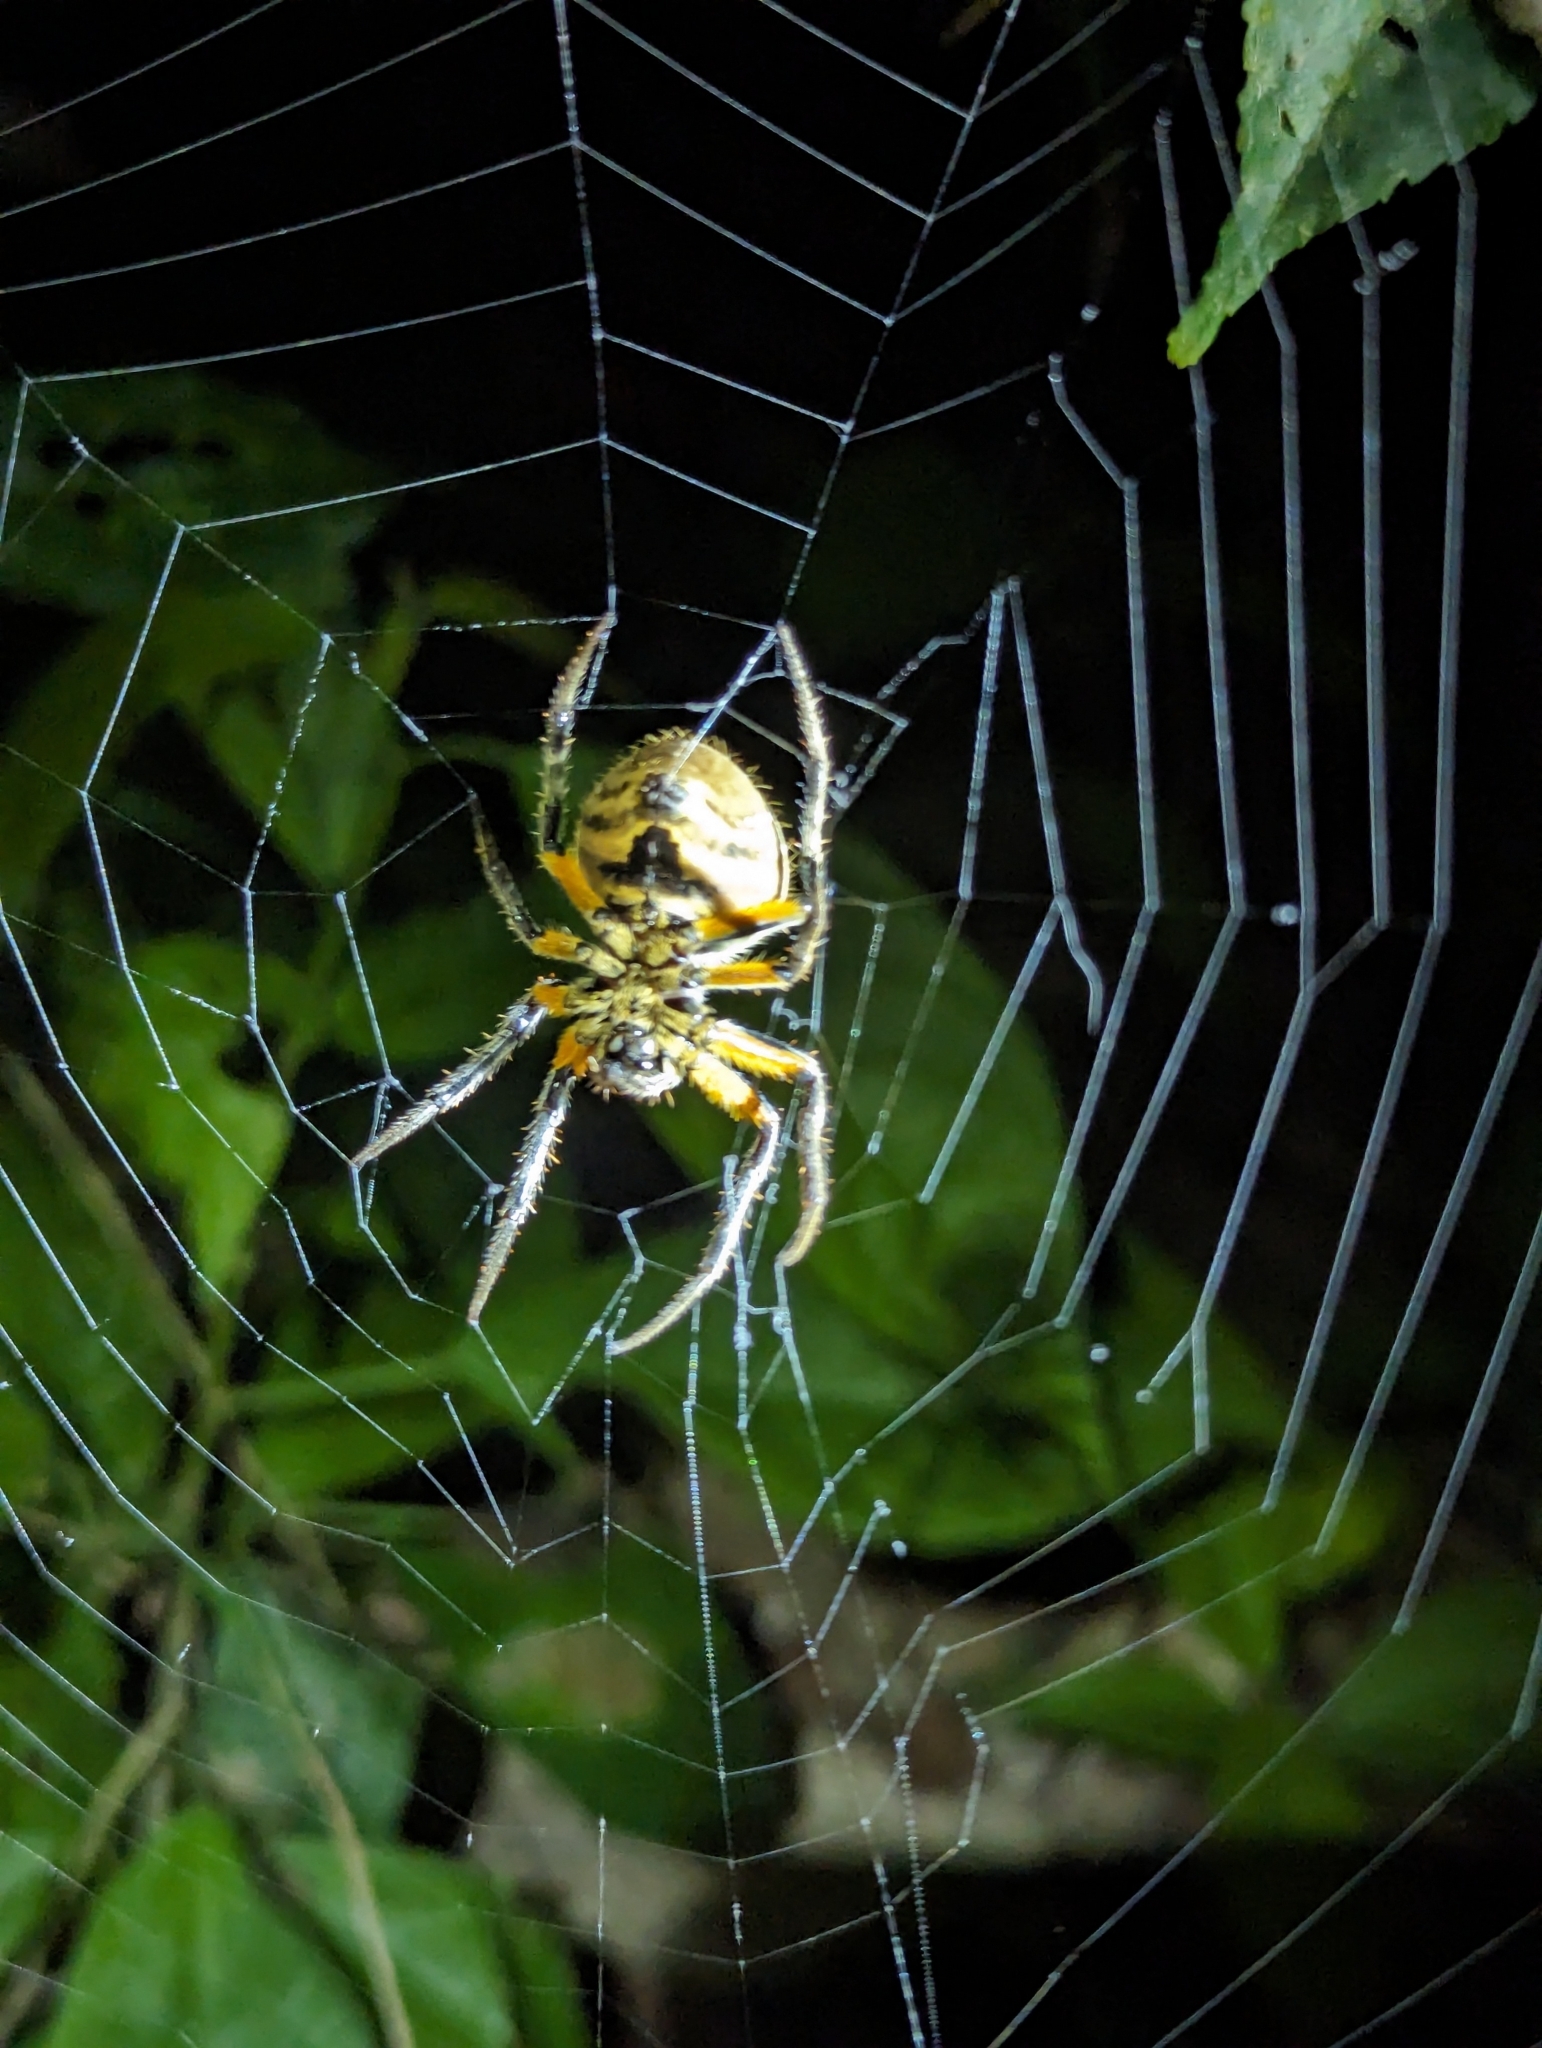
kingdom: Animalia
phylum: Arthropoda
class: Arachnida
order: Araneae
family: Araneidae
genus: Eriophora
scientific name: Eriophora fuliginea
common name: Orb weavers
